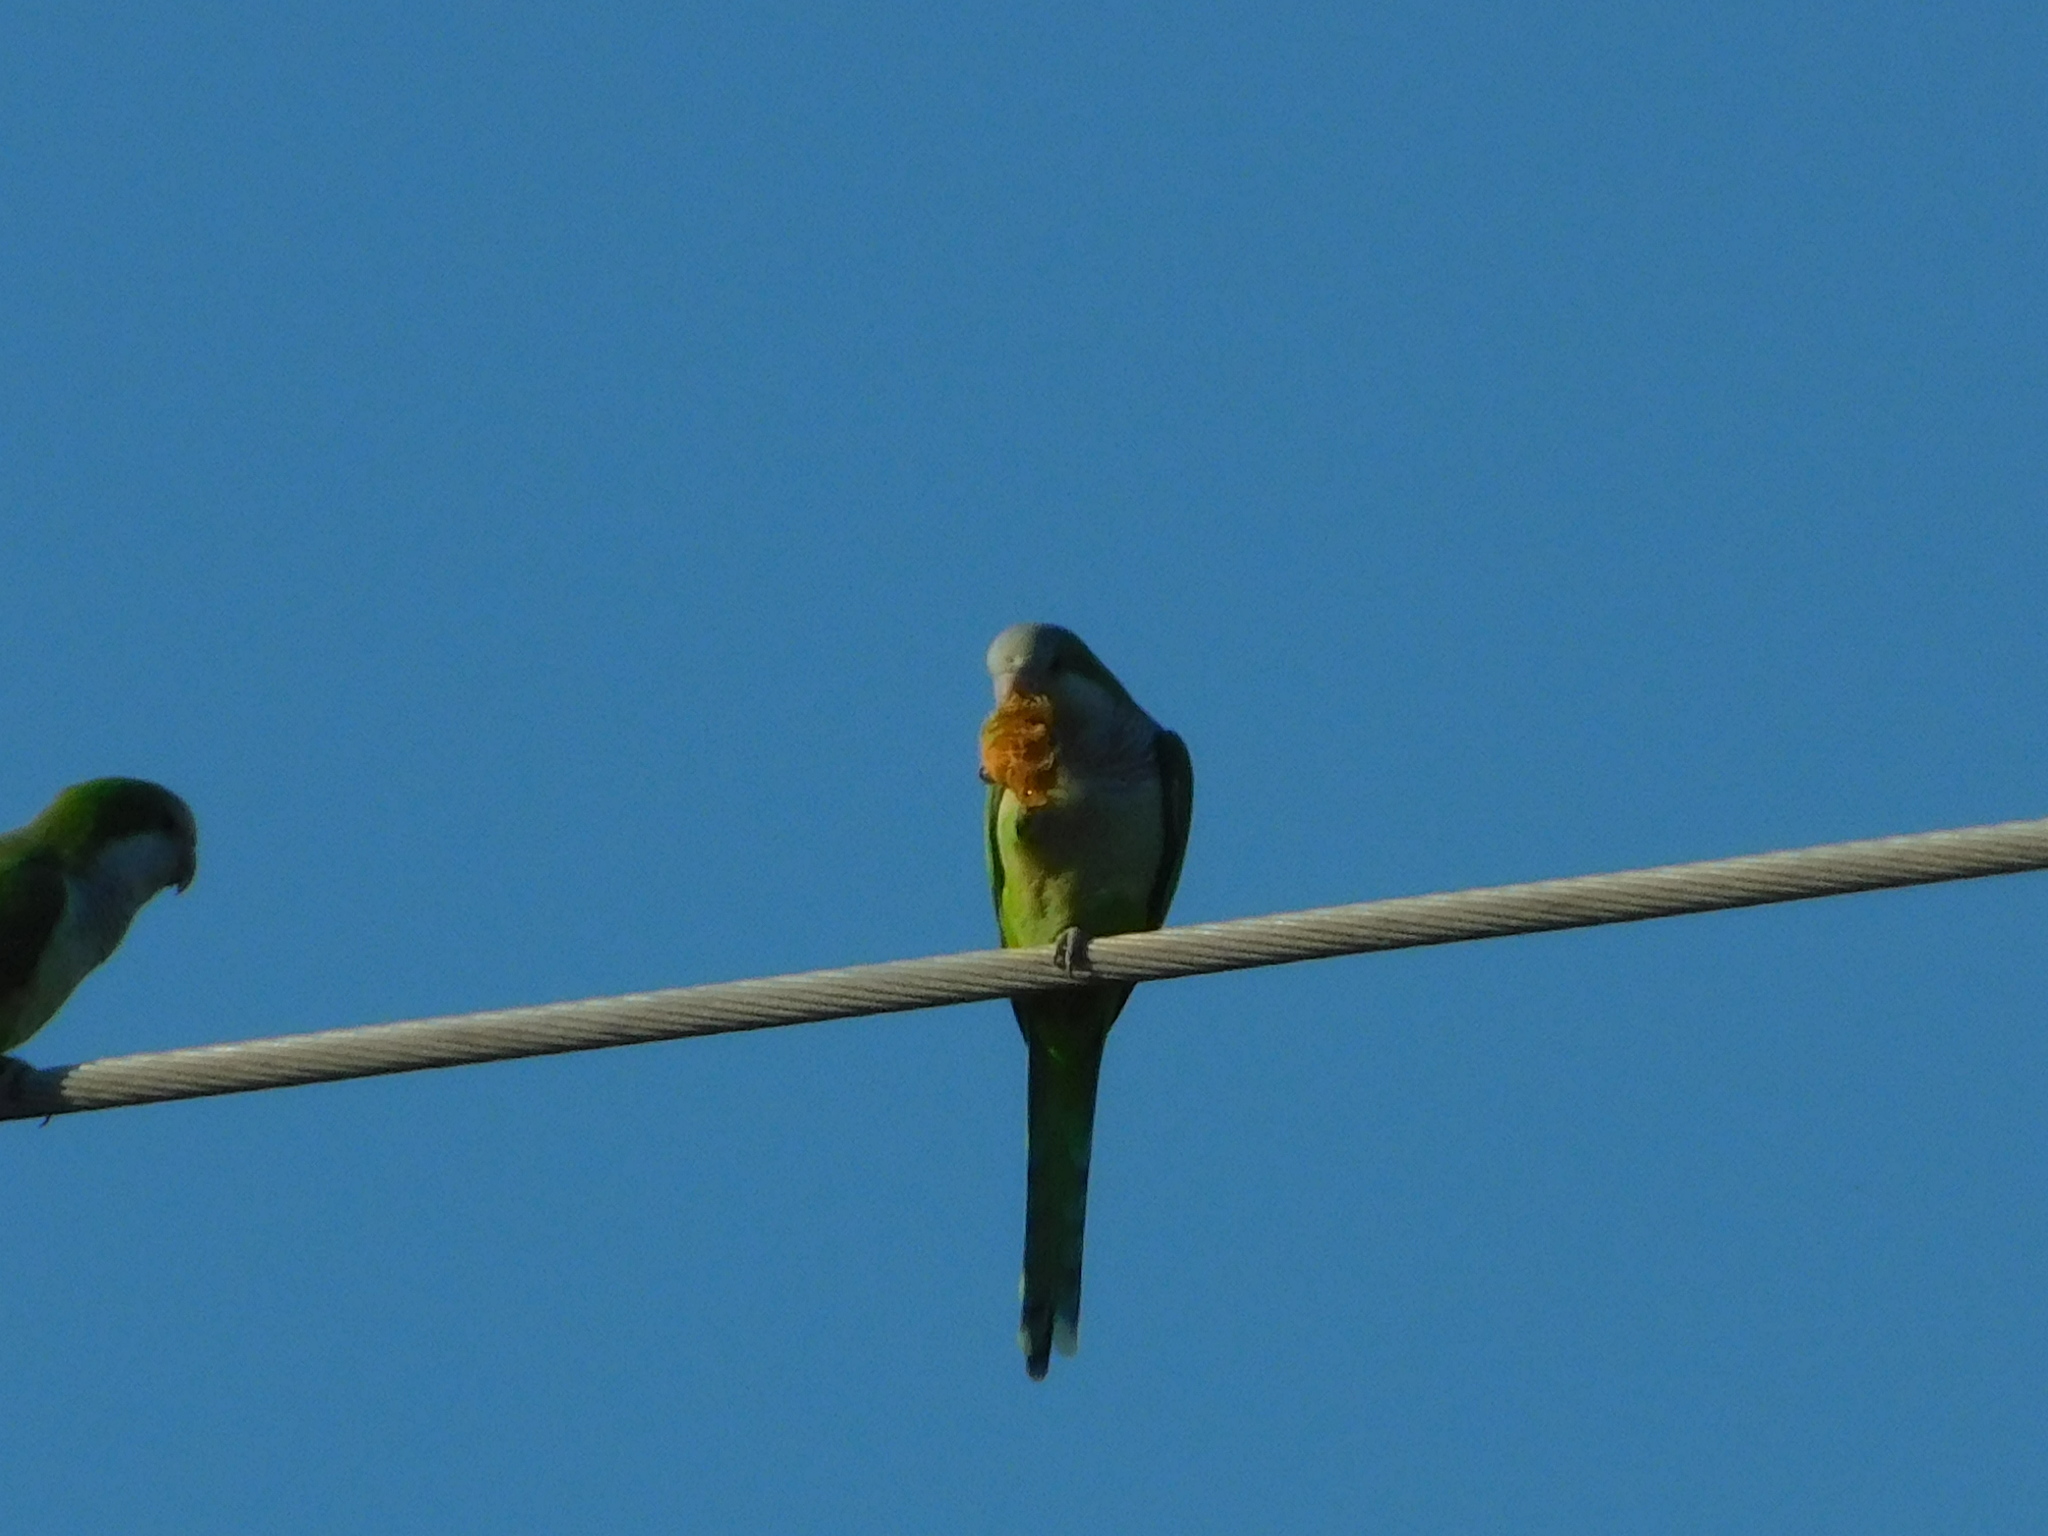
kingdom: Animalia
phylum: Chordata
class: Aves
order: Psittaciformes
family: Psittacidae
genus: Myiopsitta
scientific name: Myiopsitta monachus
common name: Monk parakeet
